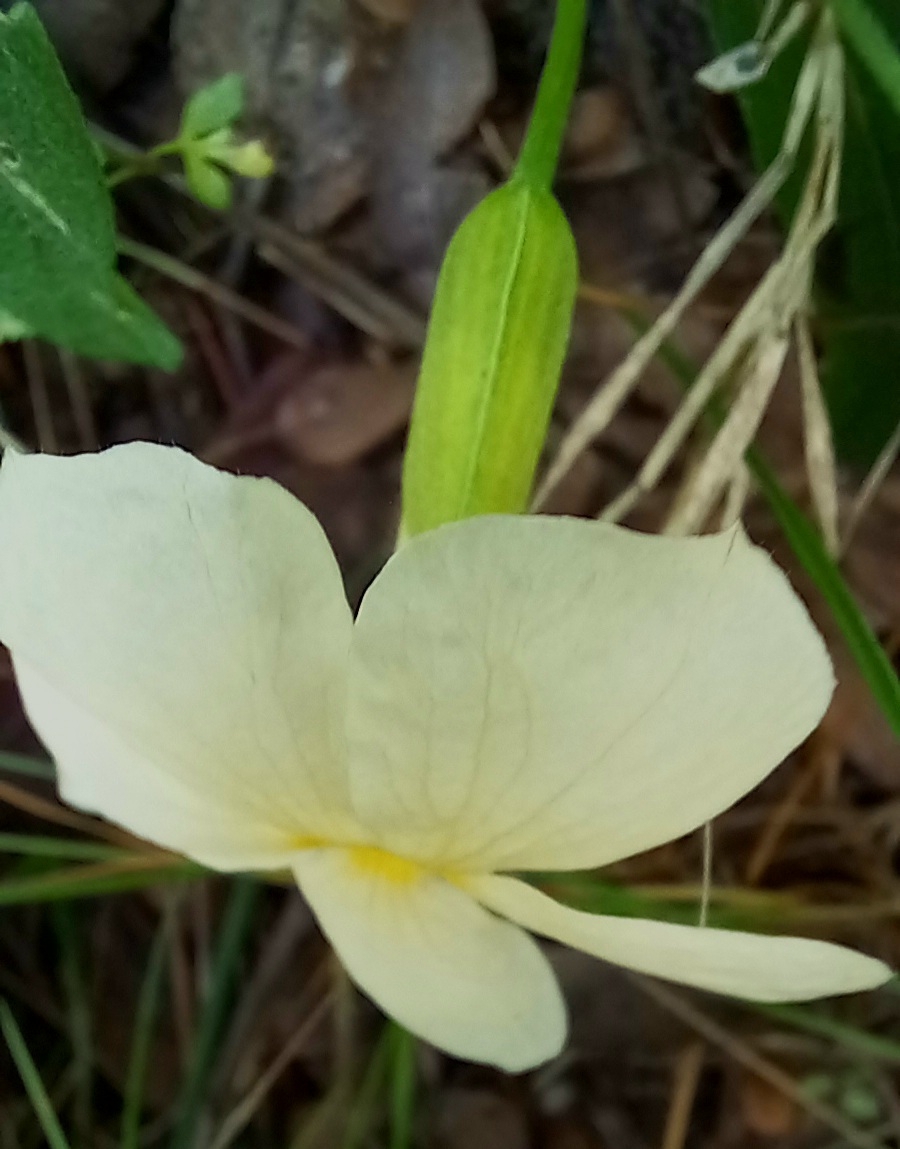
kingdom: Plantae
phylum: Tracheophyta
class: Magnoliopsida
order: Lamiales
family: Acanthaceae
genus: Thunbergia
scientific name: Thunbergia huillensis
